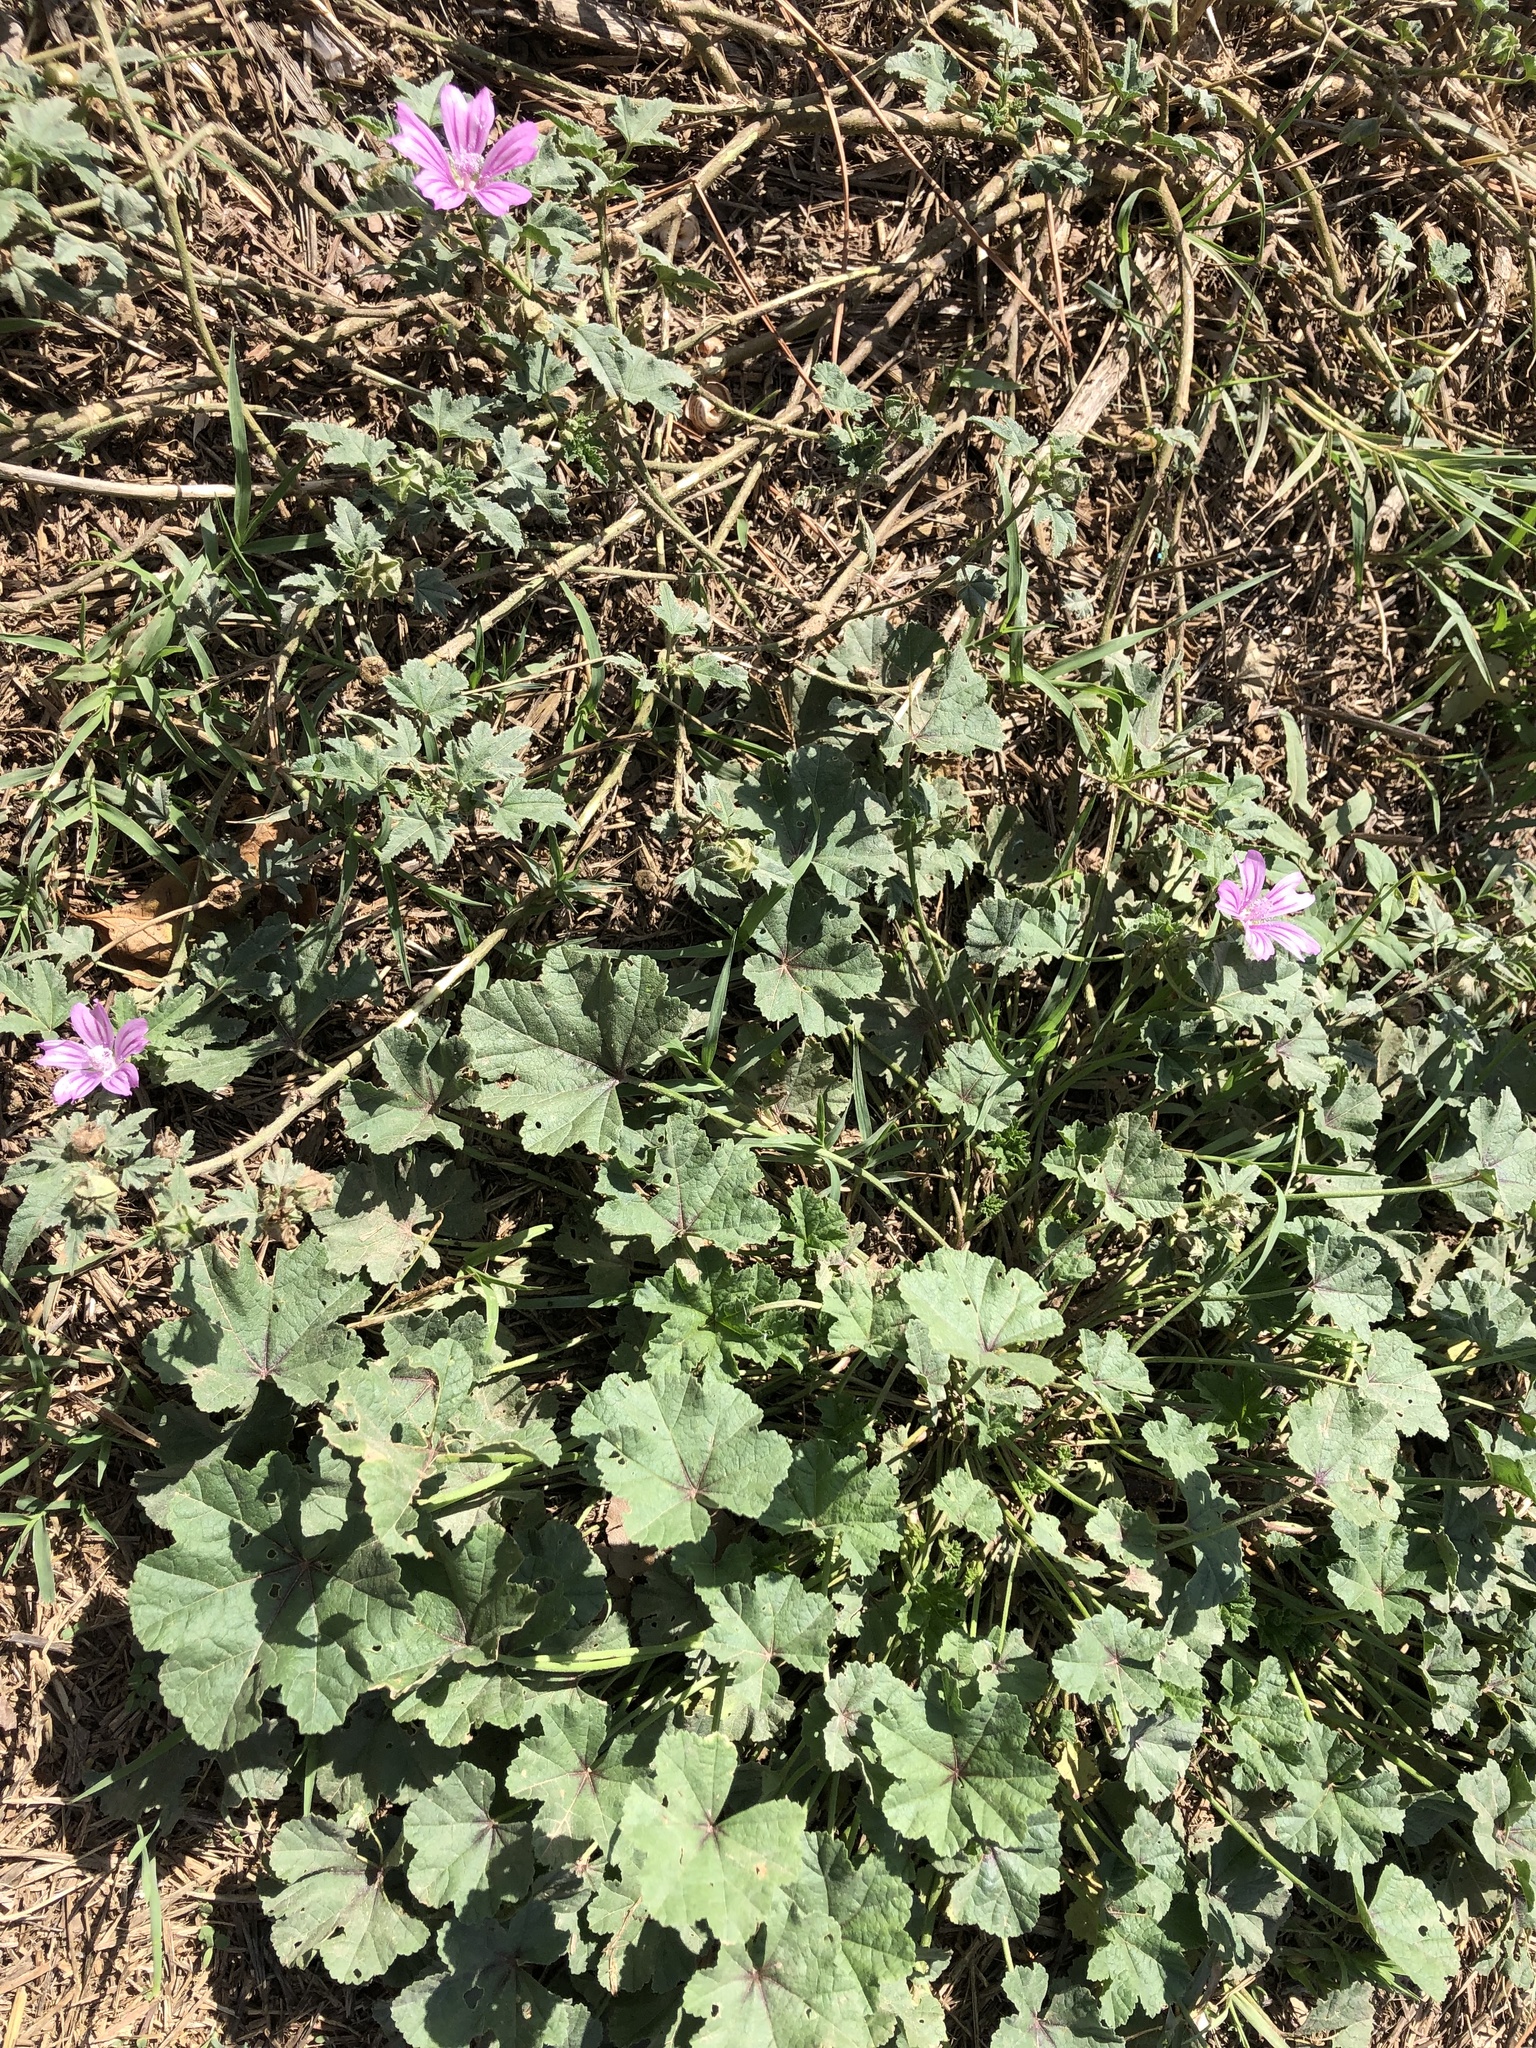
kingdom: Plantae
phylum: Tracheophyta
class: Magnoliopsida
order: Malvales
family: Malvaceae
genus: Malva
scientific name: Malva sylvestris
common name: Common mallow
